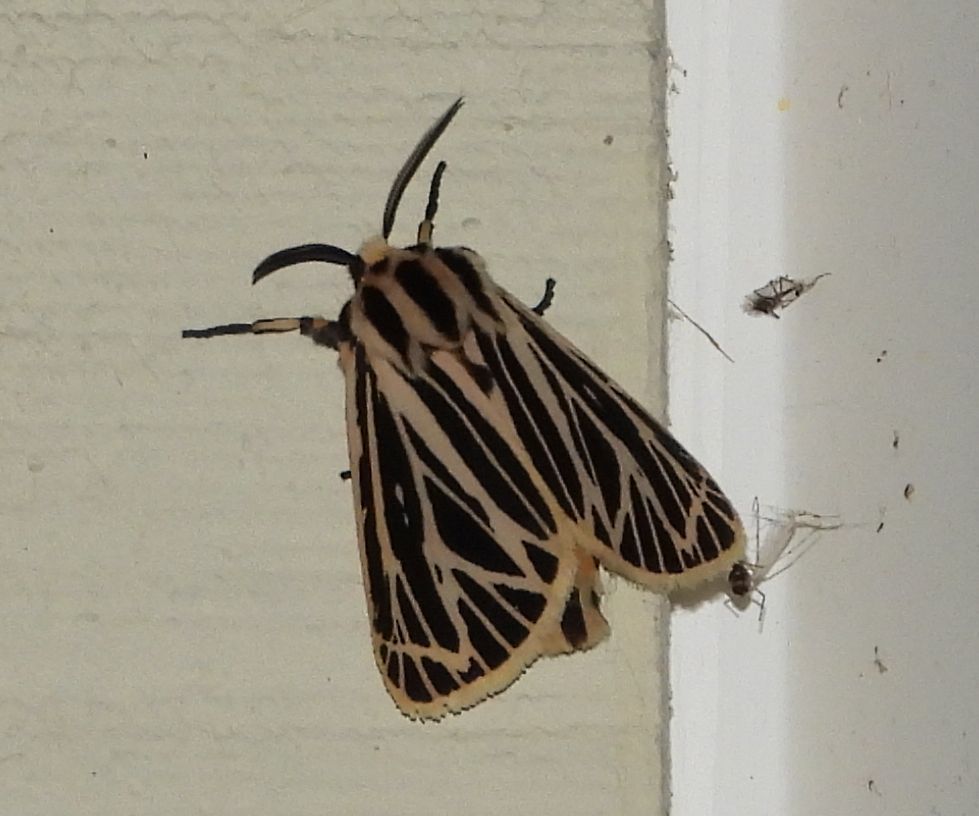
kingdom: Animalia
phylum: Arthropoda
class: Insecta
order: Lepidoptera
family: Erebidae
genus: Grammia
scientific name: Grammia virguncula
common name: Little tiger moth
